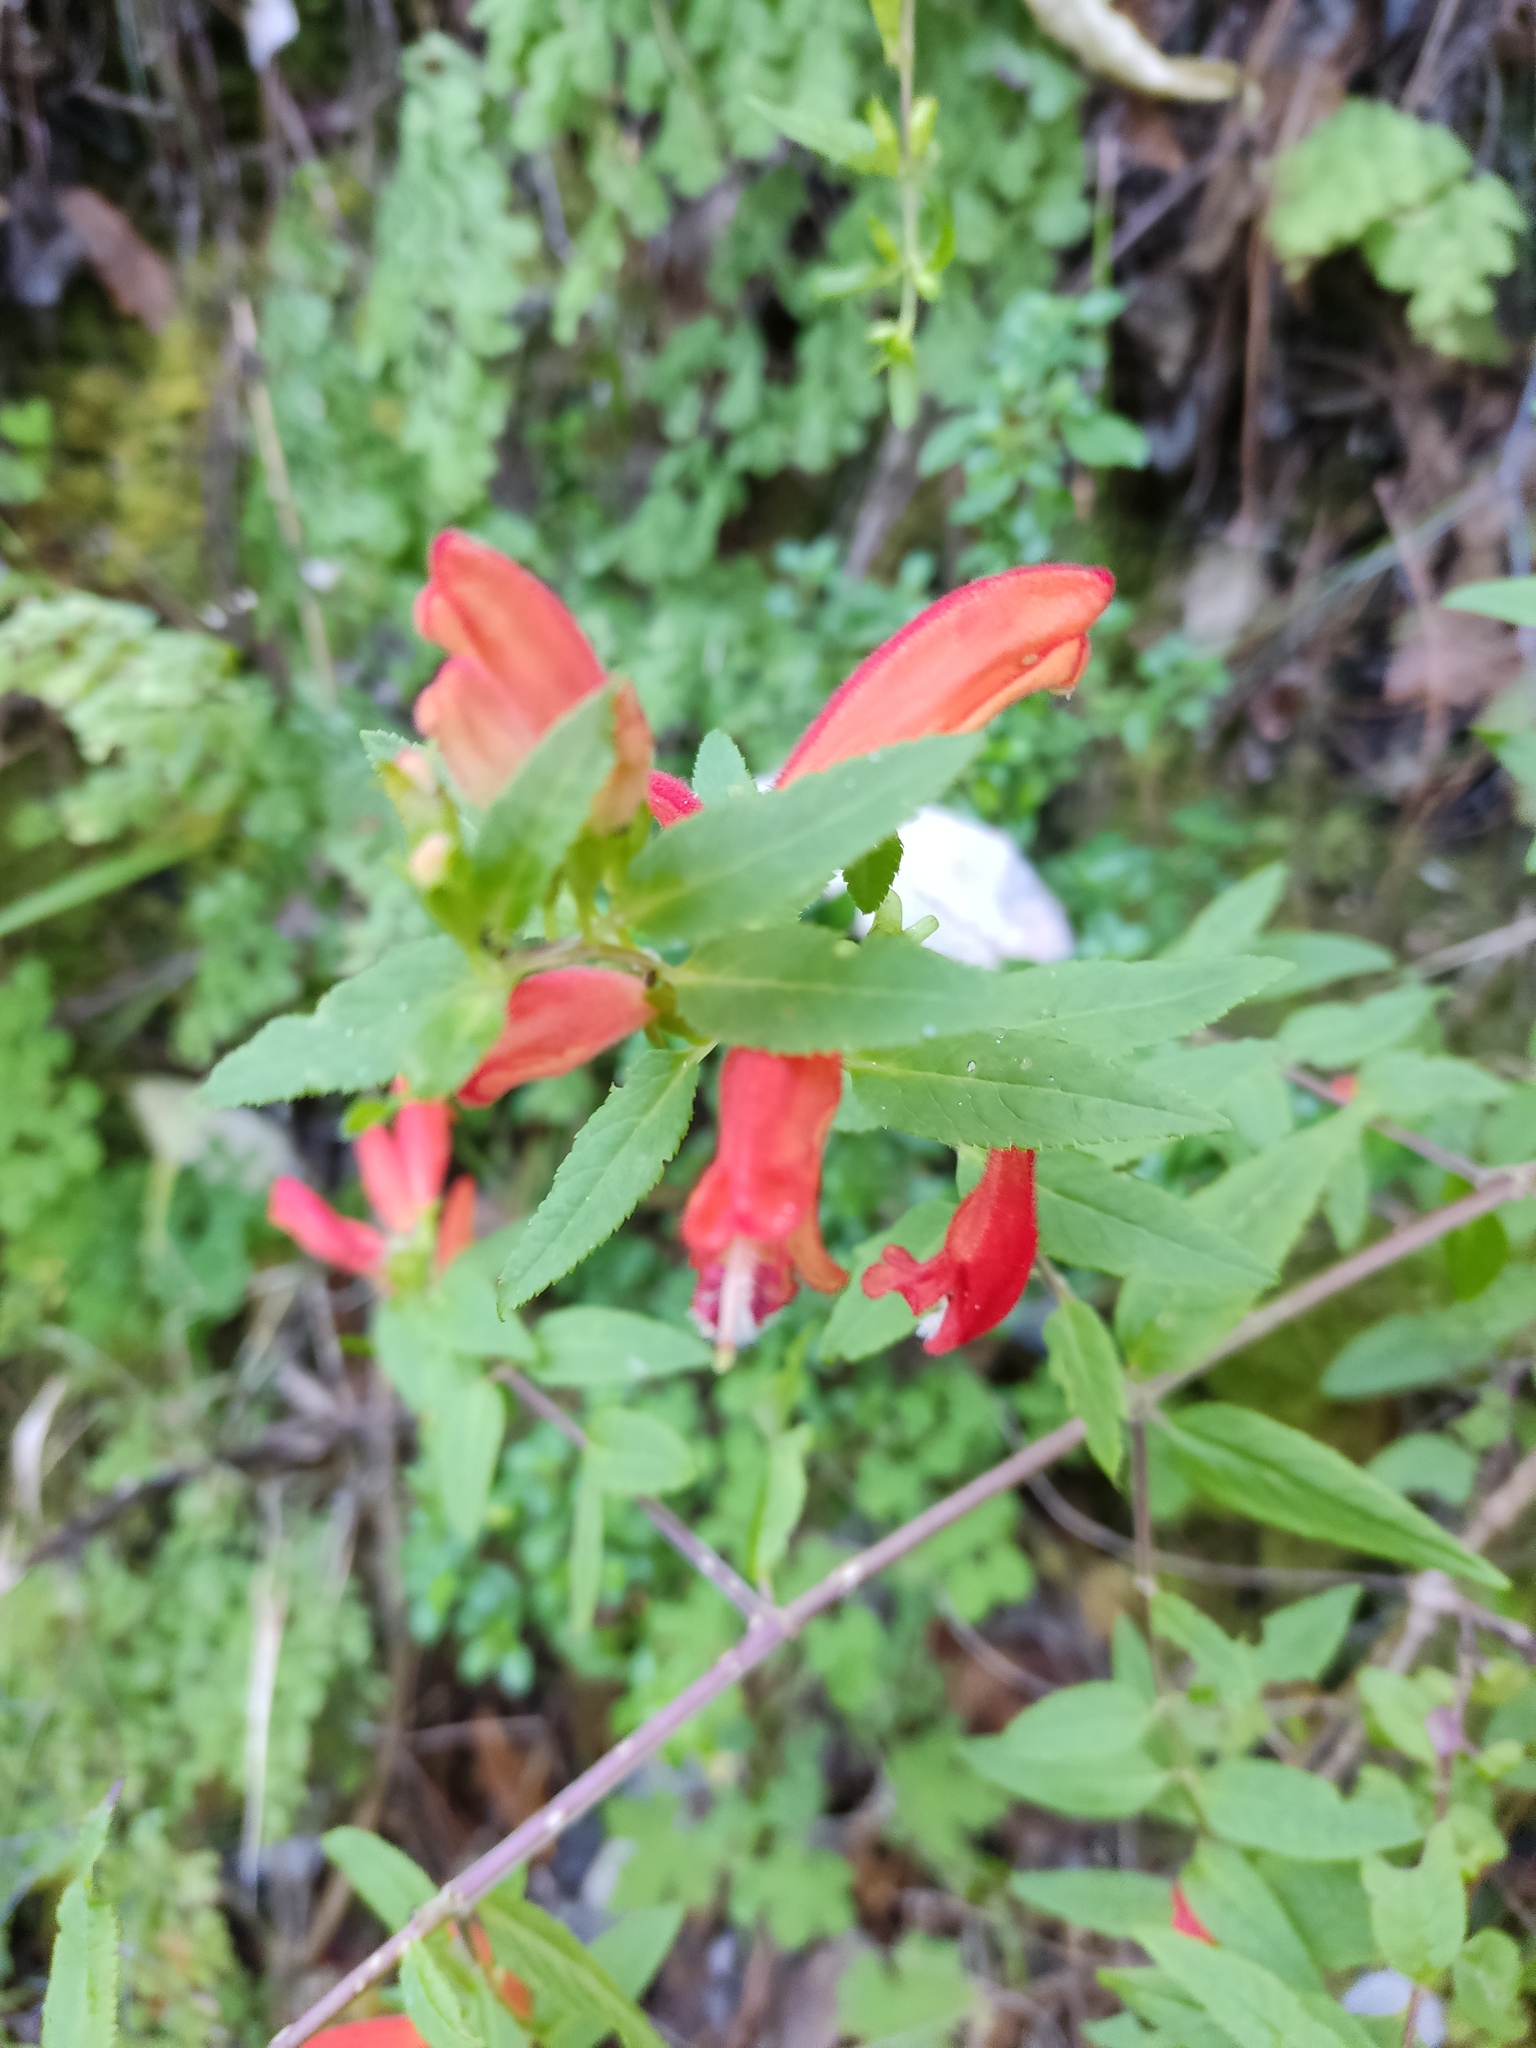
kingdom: Plantae
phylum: Tracheophyta
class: Magnoliopsida
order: Lamiales
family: Orobanchaceae
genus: Lamourouxia
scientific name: Lamourouxia xalapensis
